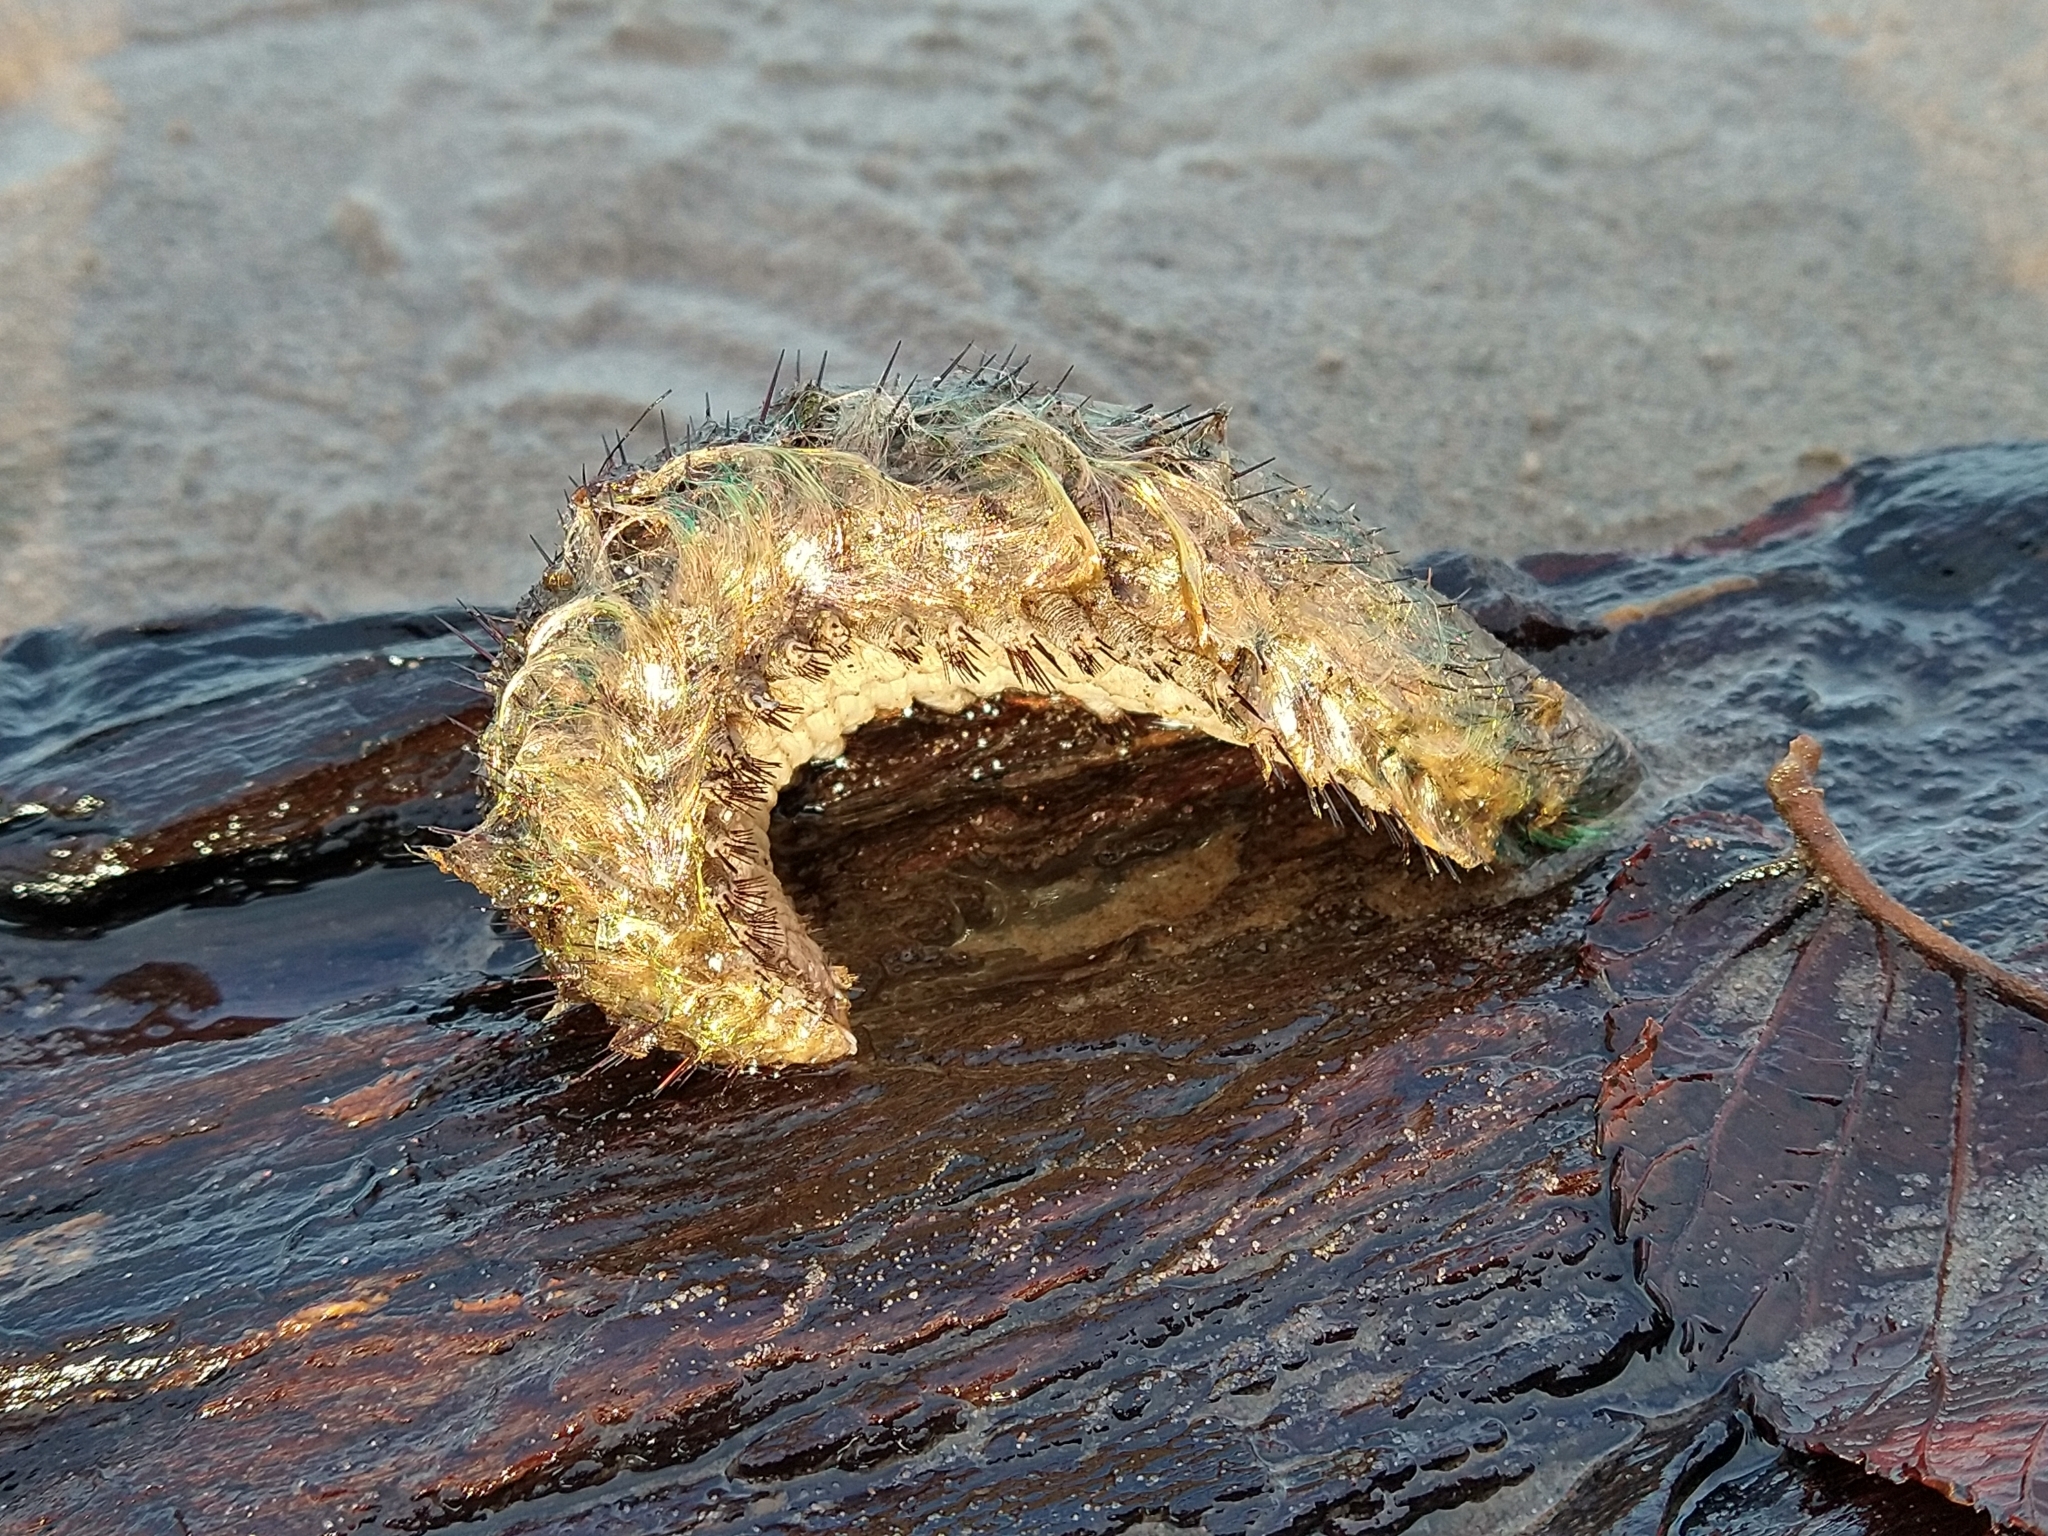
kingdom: Animalia
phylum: Annelida
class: Polychaeta
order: Phyllodocida
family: Aphroditidae
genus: Aphrodita
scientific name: Aphrodita aculeata
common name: Sea mouse
